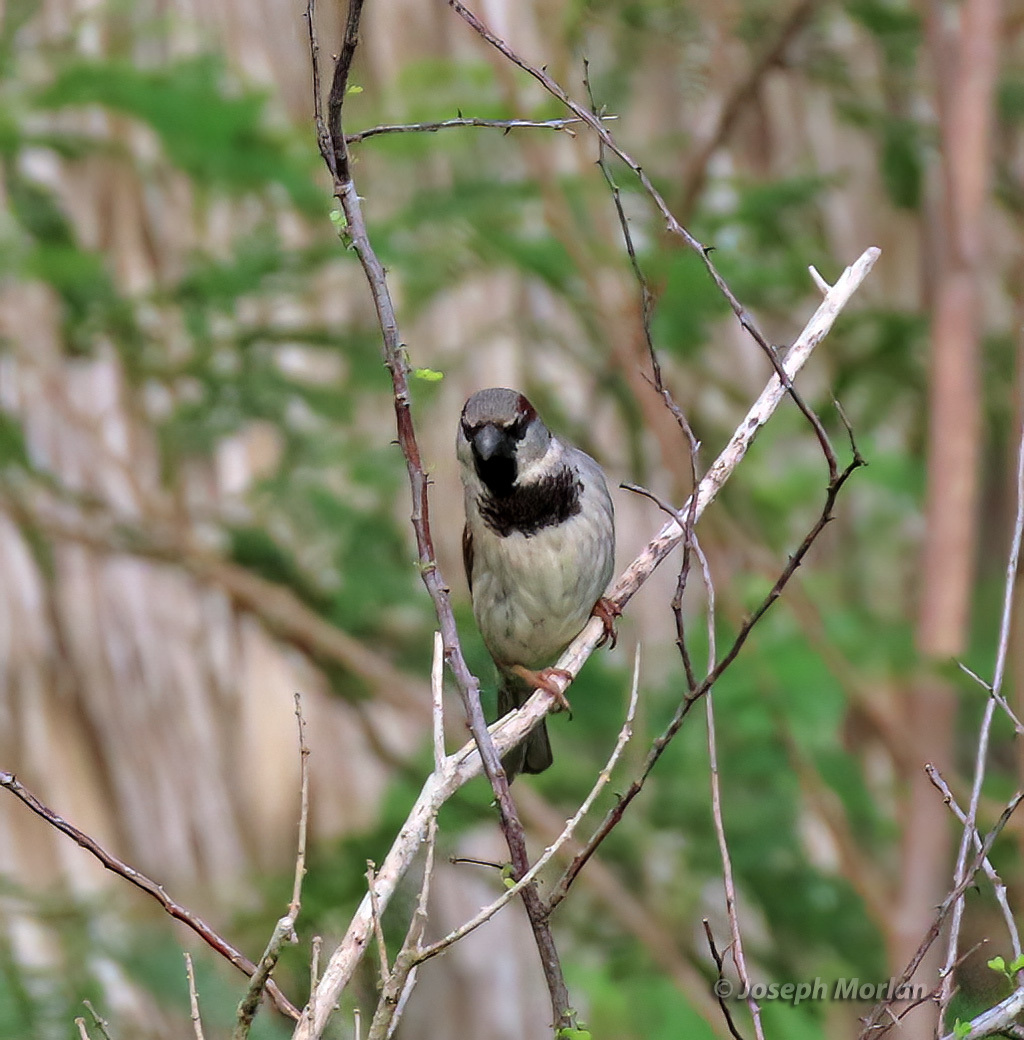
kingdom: Animalia
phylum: Chordata
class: Aves
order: Passeriformes
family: Passeridae
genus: Passer
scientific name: Passer domesticus
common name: House sparrow
